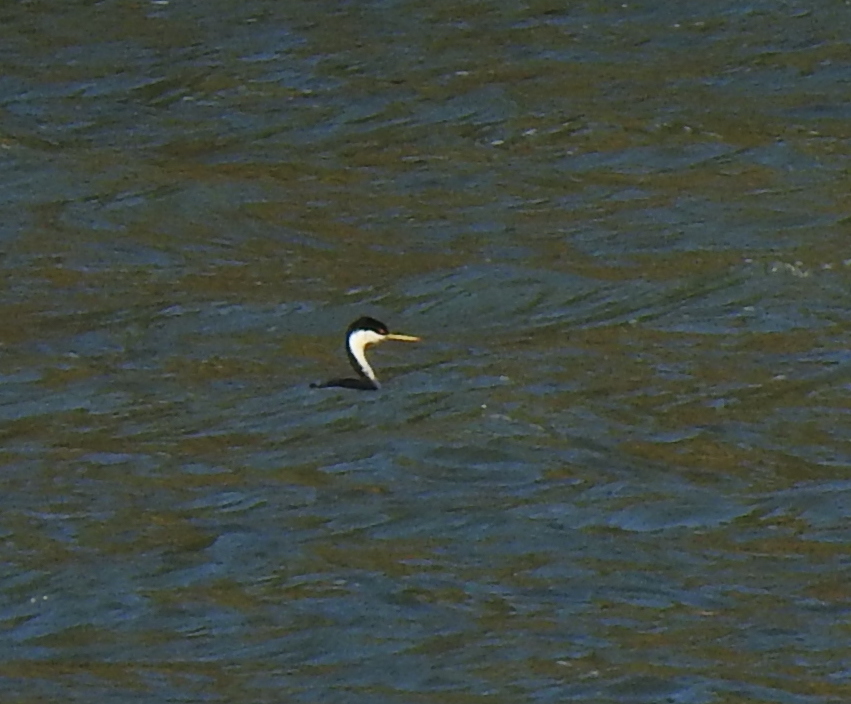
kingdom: Animalia
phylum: Chordata
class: Aves
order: Podicipediformes
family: Podicipedidae
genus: Aechmophorus
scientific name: Aechmophorus occidentalis
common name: Western grebe
